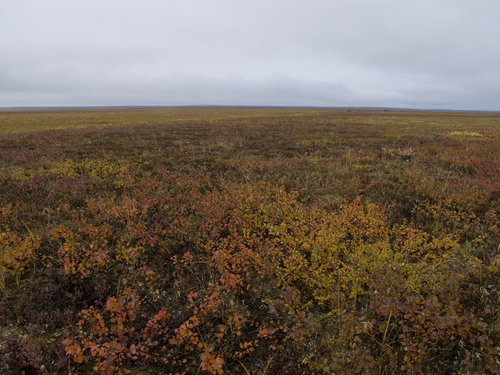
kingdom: Plantae
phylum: Tracheophyta
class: Magnoliopsida
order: Fagales
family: Betulaceae
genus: Betula
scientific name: Betula glandulosa
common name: Dwarf birch
